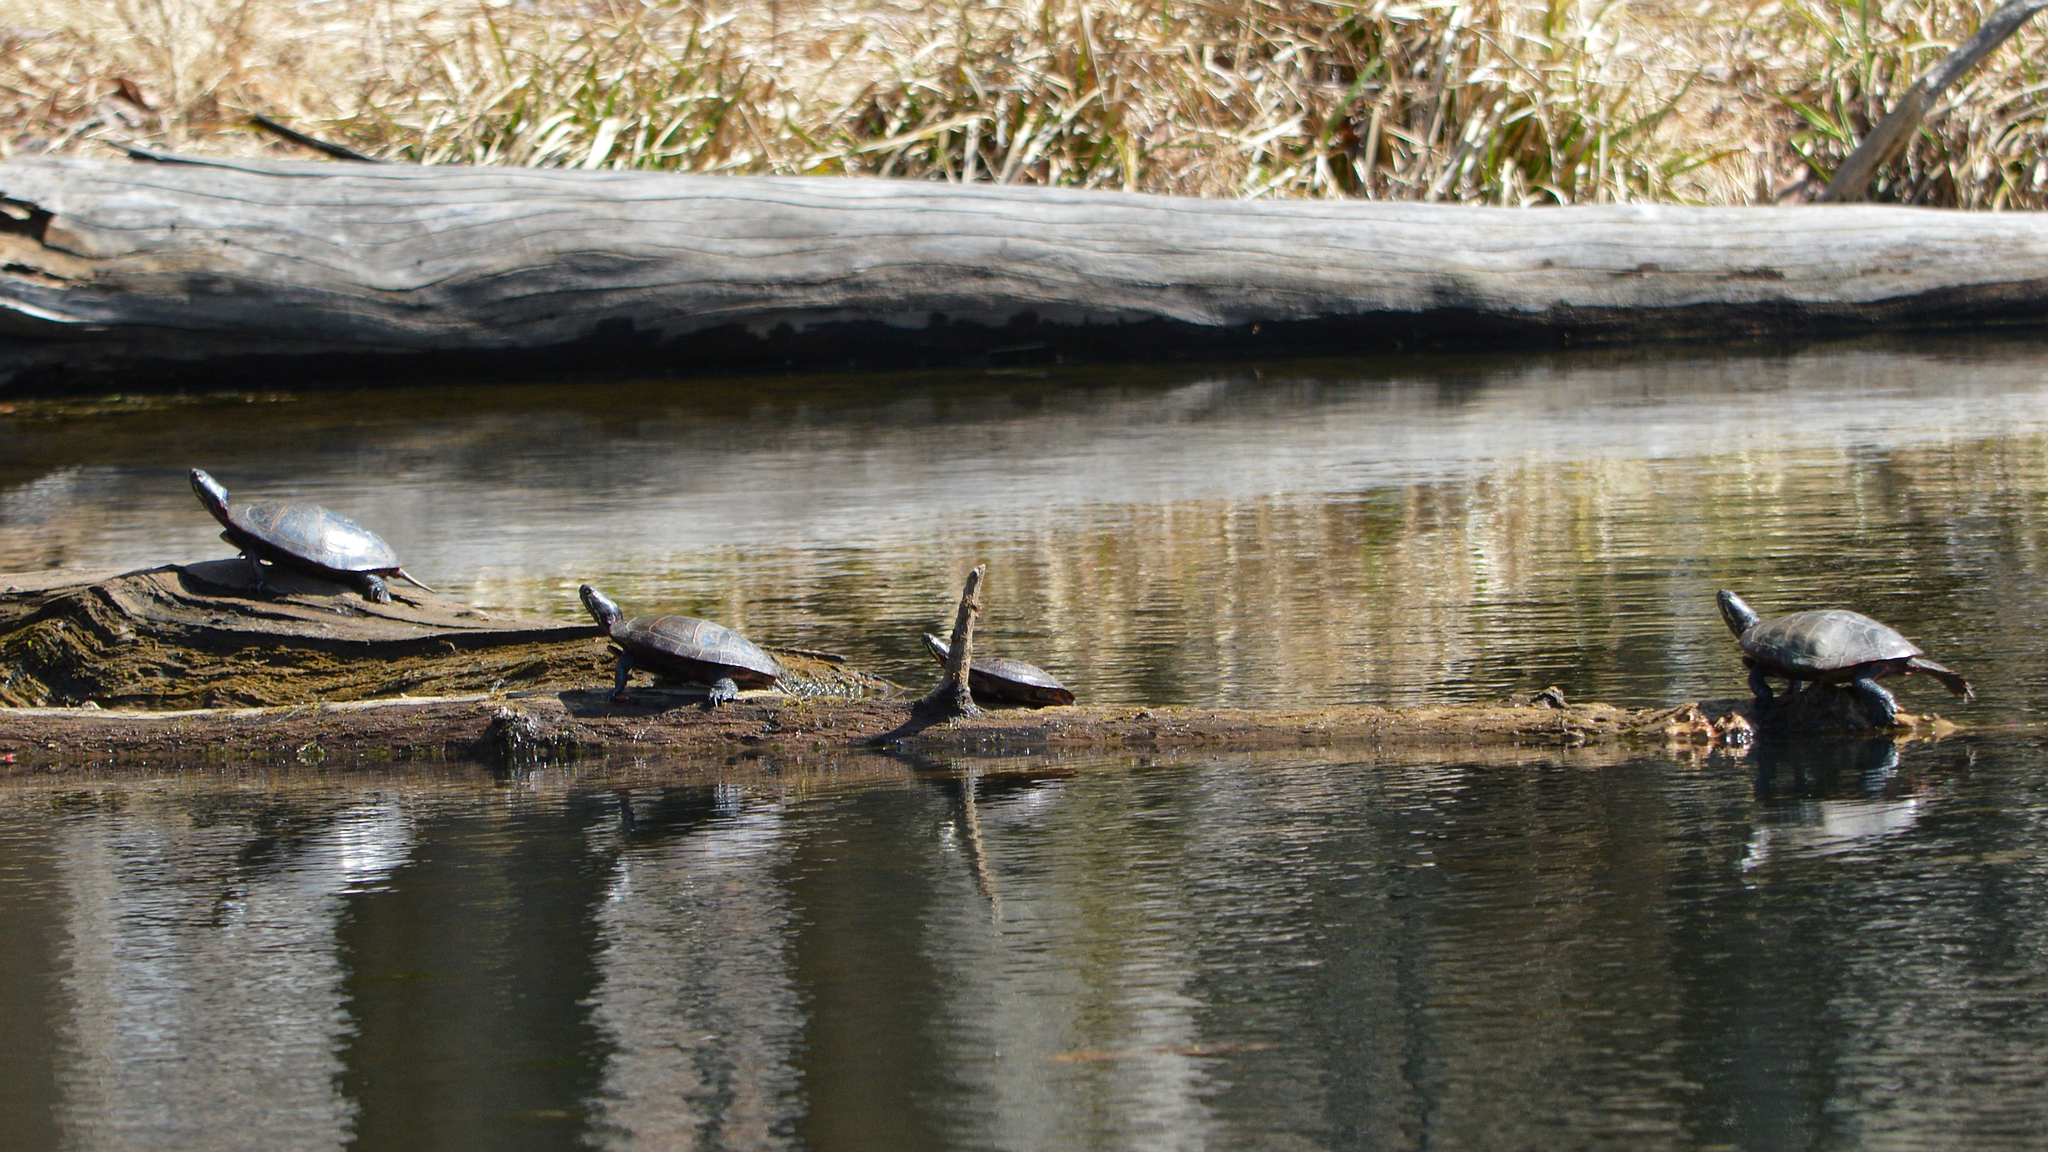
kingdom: Animalia
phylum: Chordata
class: Testudines
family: Emydidae
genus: Chrysemys
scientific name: Chrysemys picta
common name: Painted turtle
